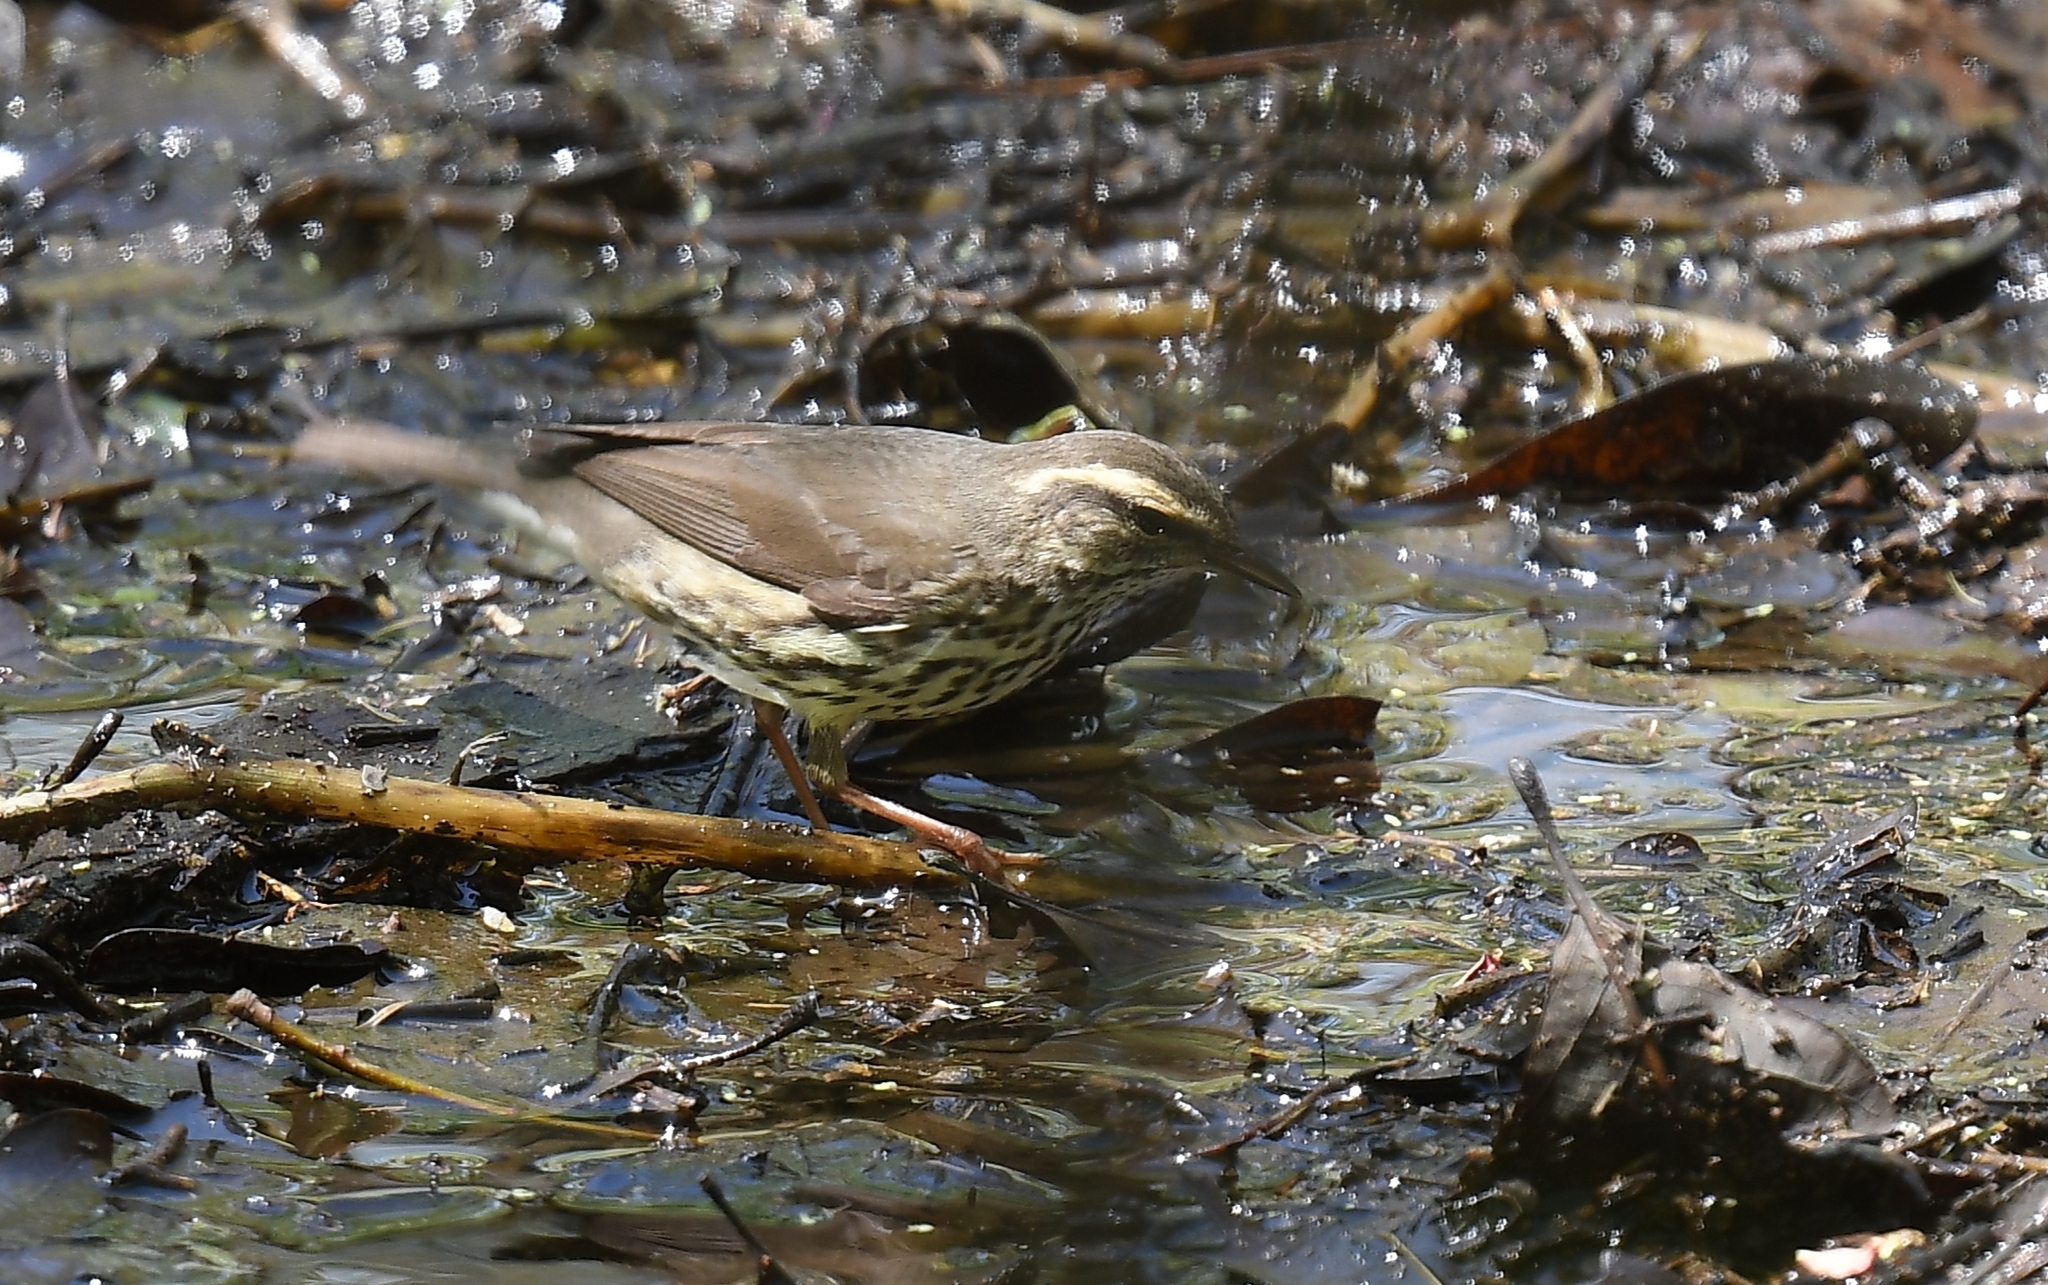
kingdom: Animalia
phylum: Chordata
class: Aves
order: Passeriformes
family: Parulidae
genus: Parkesia
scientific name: Parkesia noveboracensis
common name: Northern waterthrush
